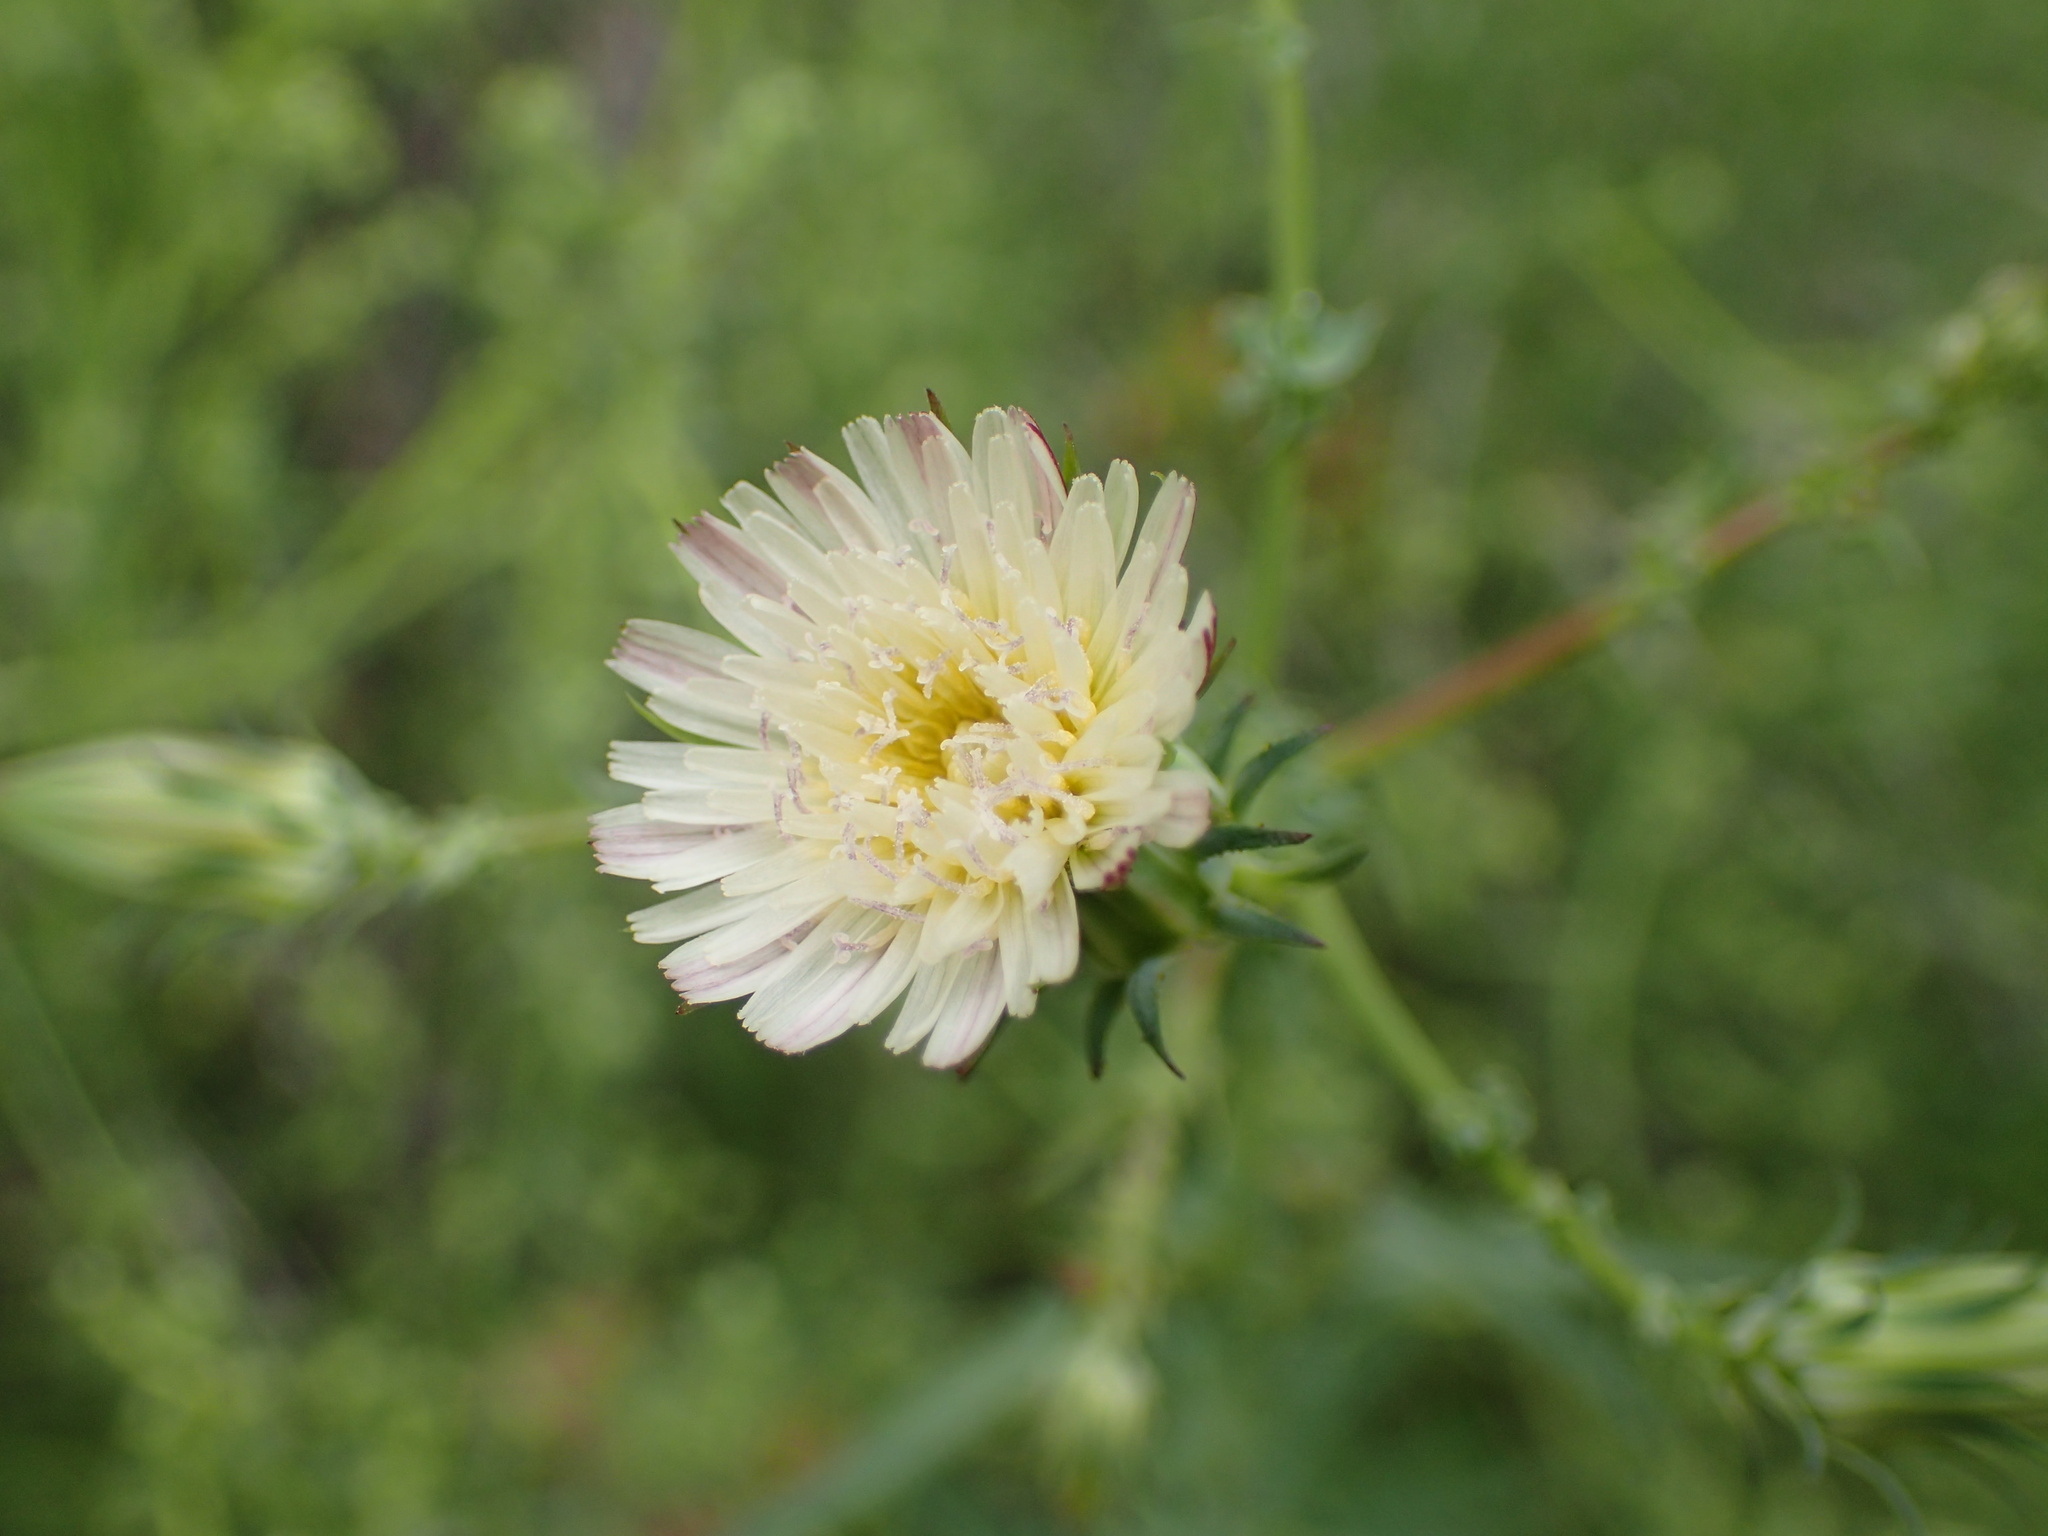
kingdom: Plantae
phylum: Tracheophyta
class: Magnoliopsida
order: Asterales
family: Asteraceae
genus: Rafinesquia
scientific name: Rafinesquia californica
